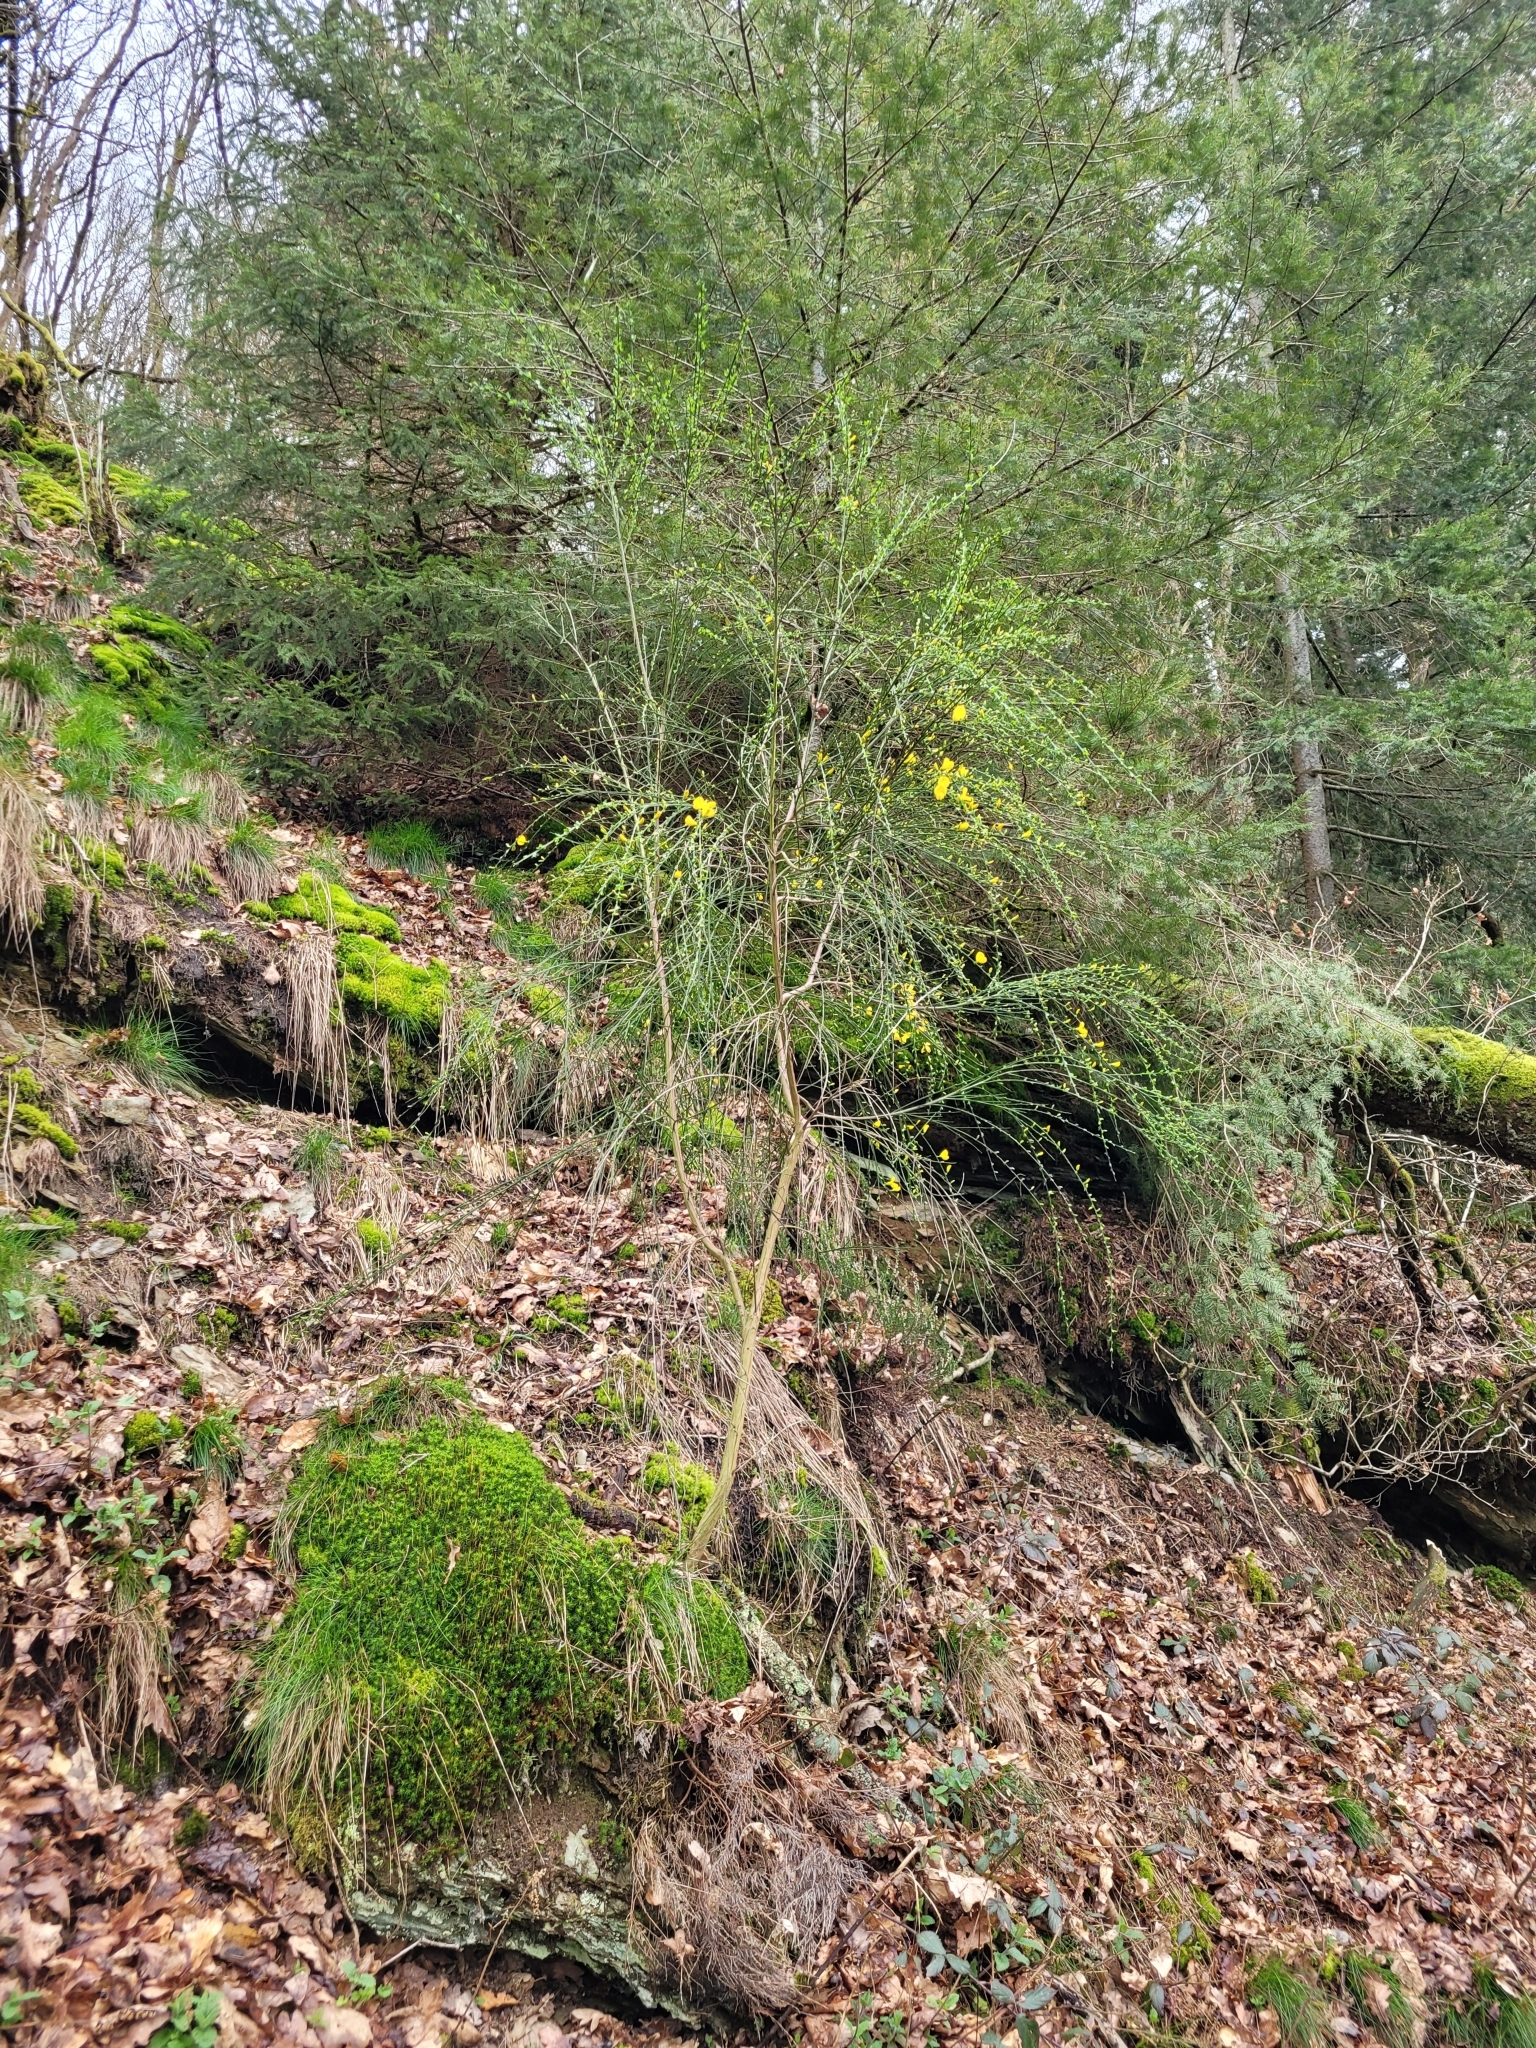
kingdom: Plantae
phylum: Tracheophyta
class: Magnoliopsida
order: Fabales
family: Fabaceae
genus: Cytisus
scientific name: Cytisus scoparius
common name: Scotch broom
